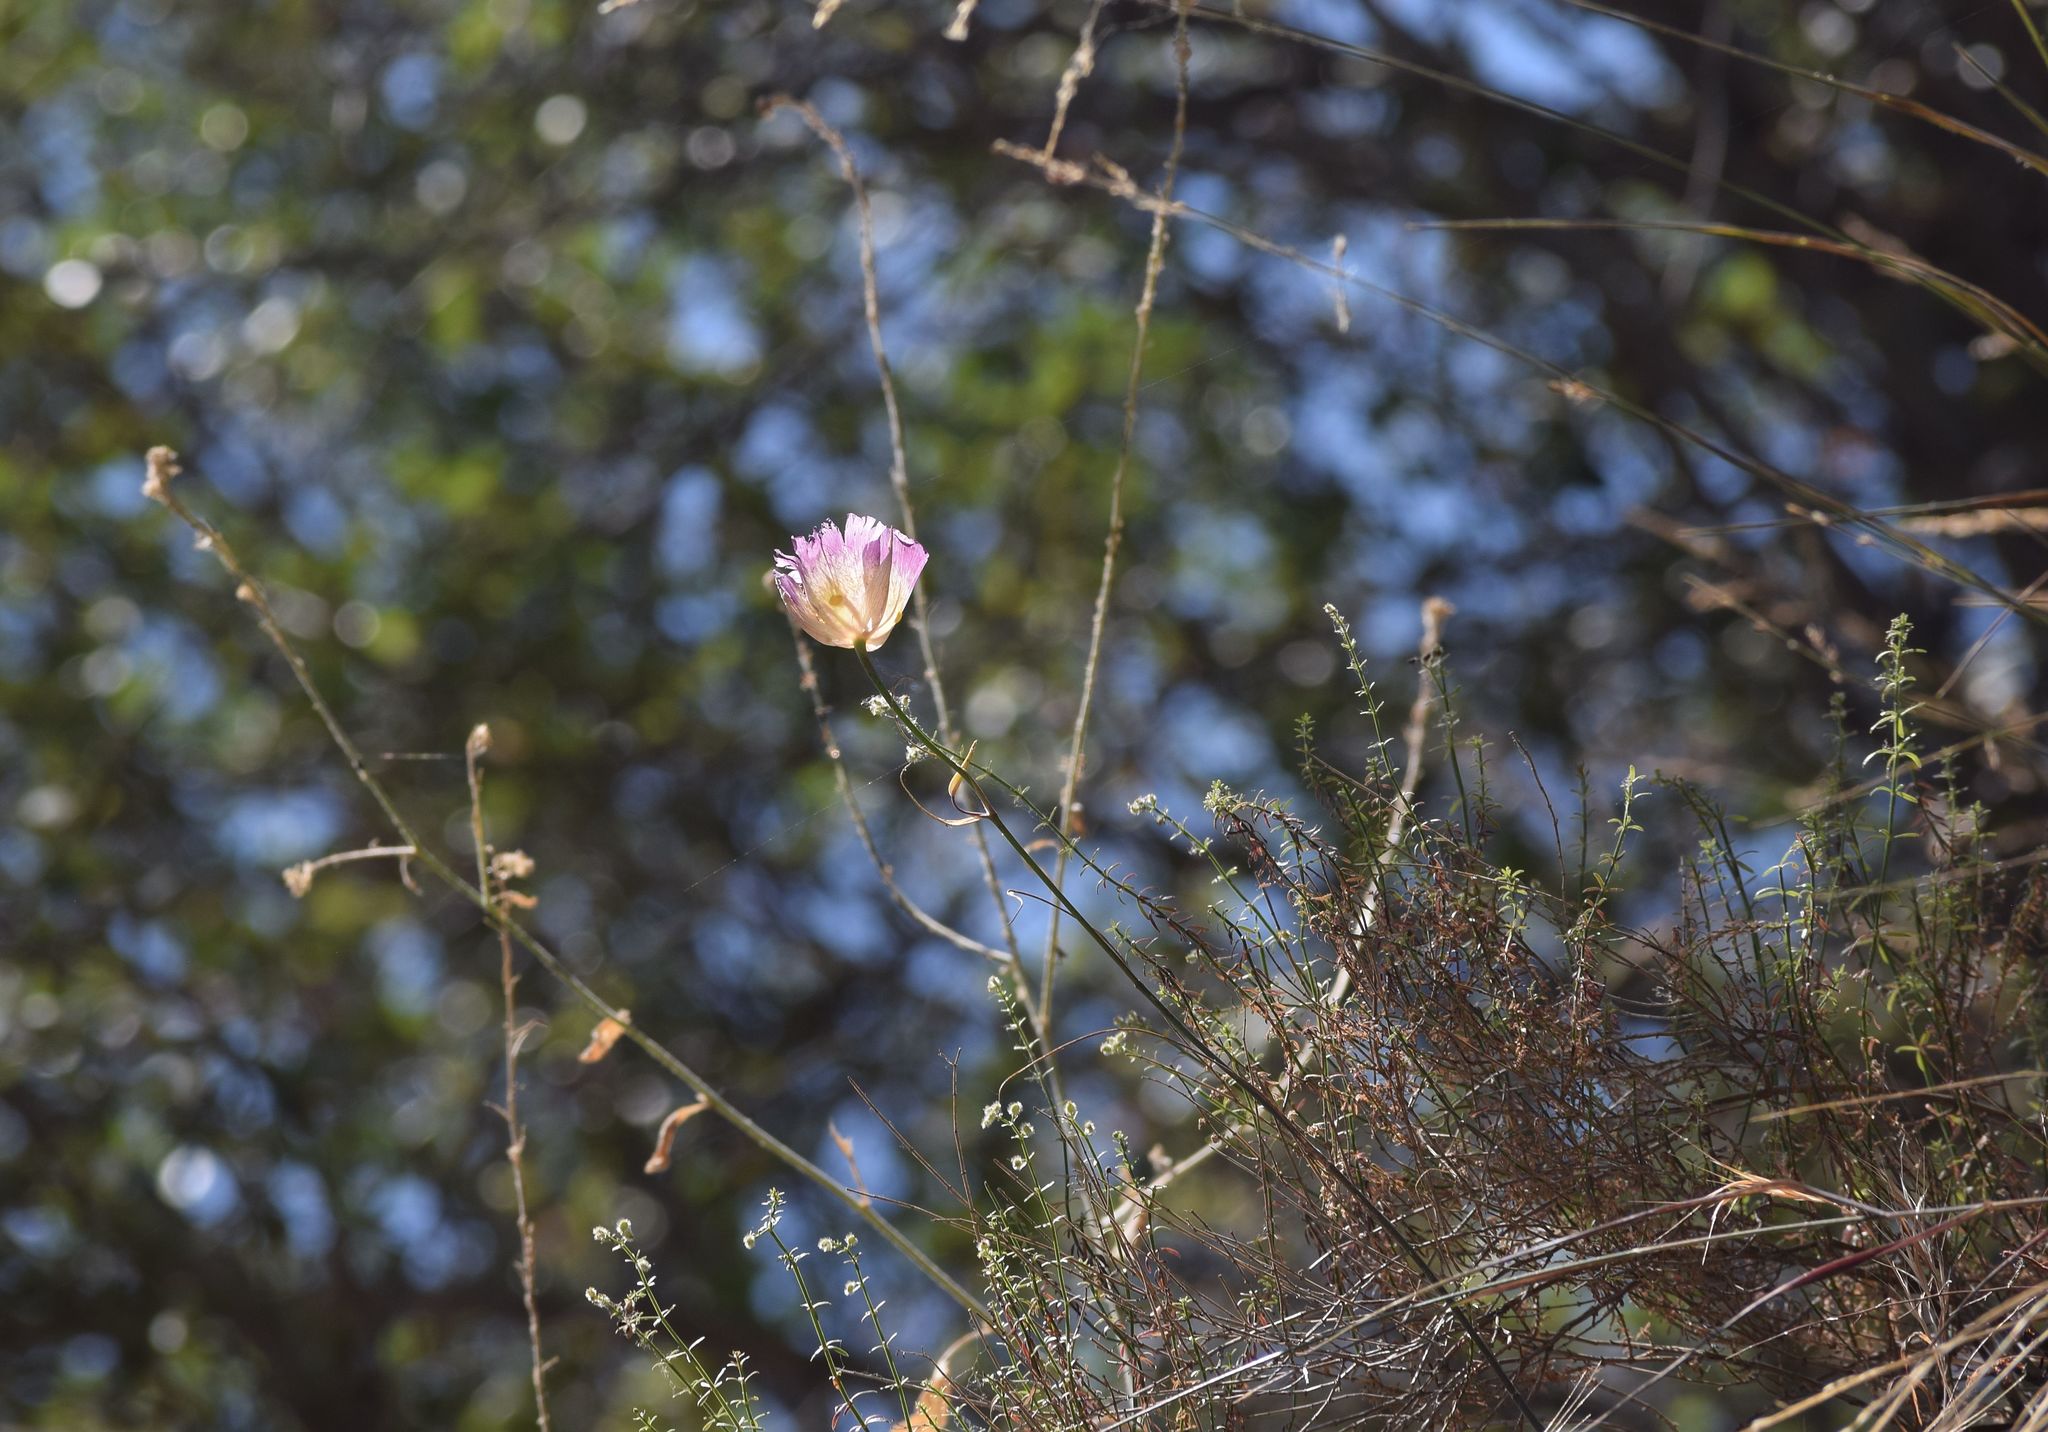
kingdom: Plantae
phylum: Tracheophyta
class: Liliopsida
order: Liliales
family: Liliaceae
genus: Calochortus
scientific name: Calochortus plummerae
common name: Plummer's mariposa-lily
